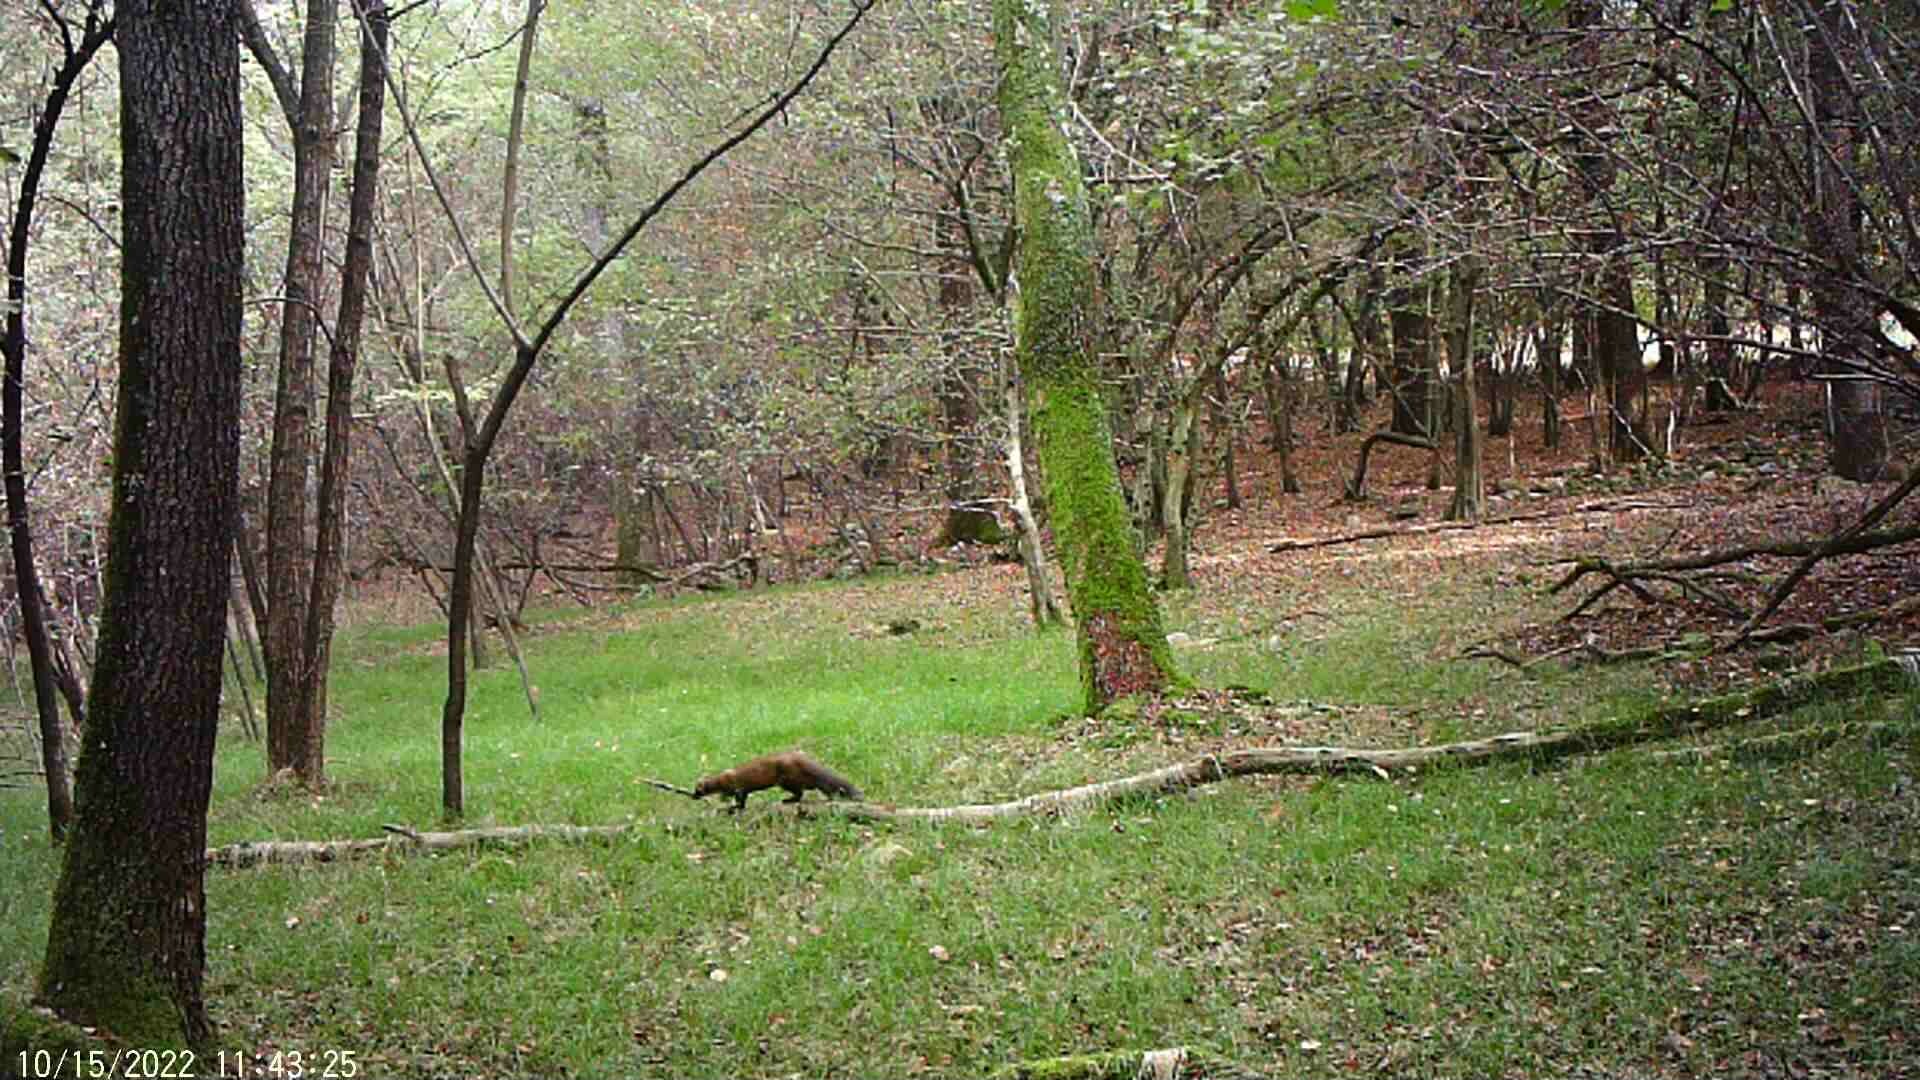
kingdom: Animalia
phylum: Chordata
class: Mammalia
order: Carnivora
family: Mustelidae
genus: Martes
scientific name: Martes martes
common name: European pine marten
